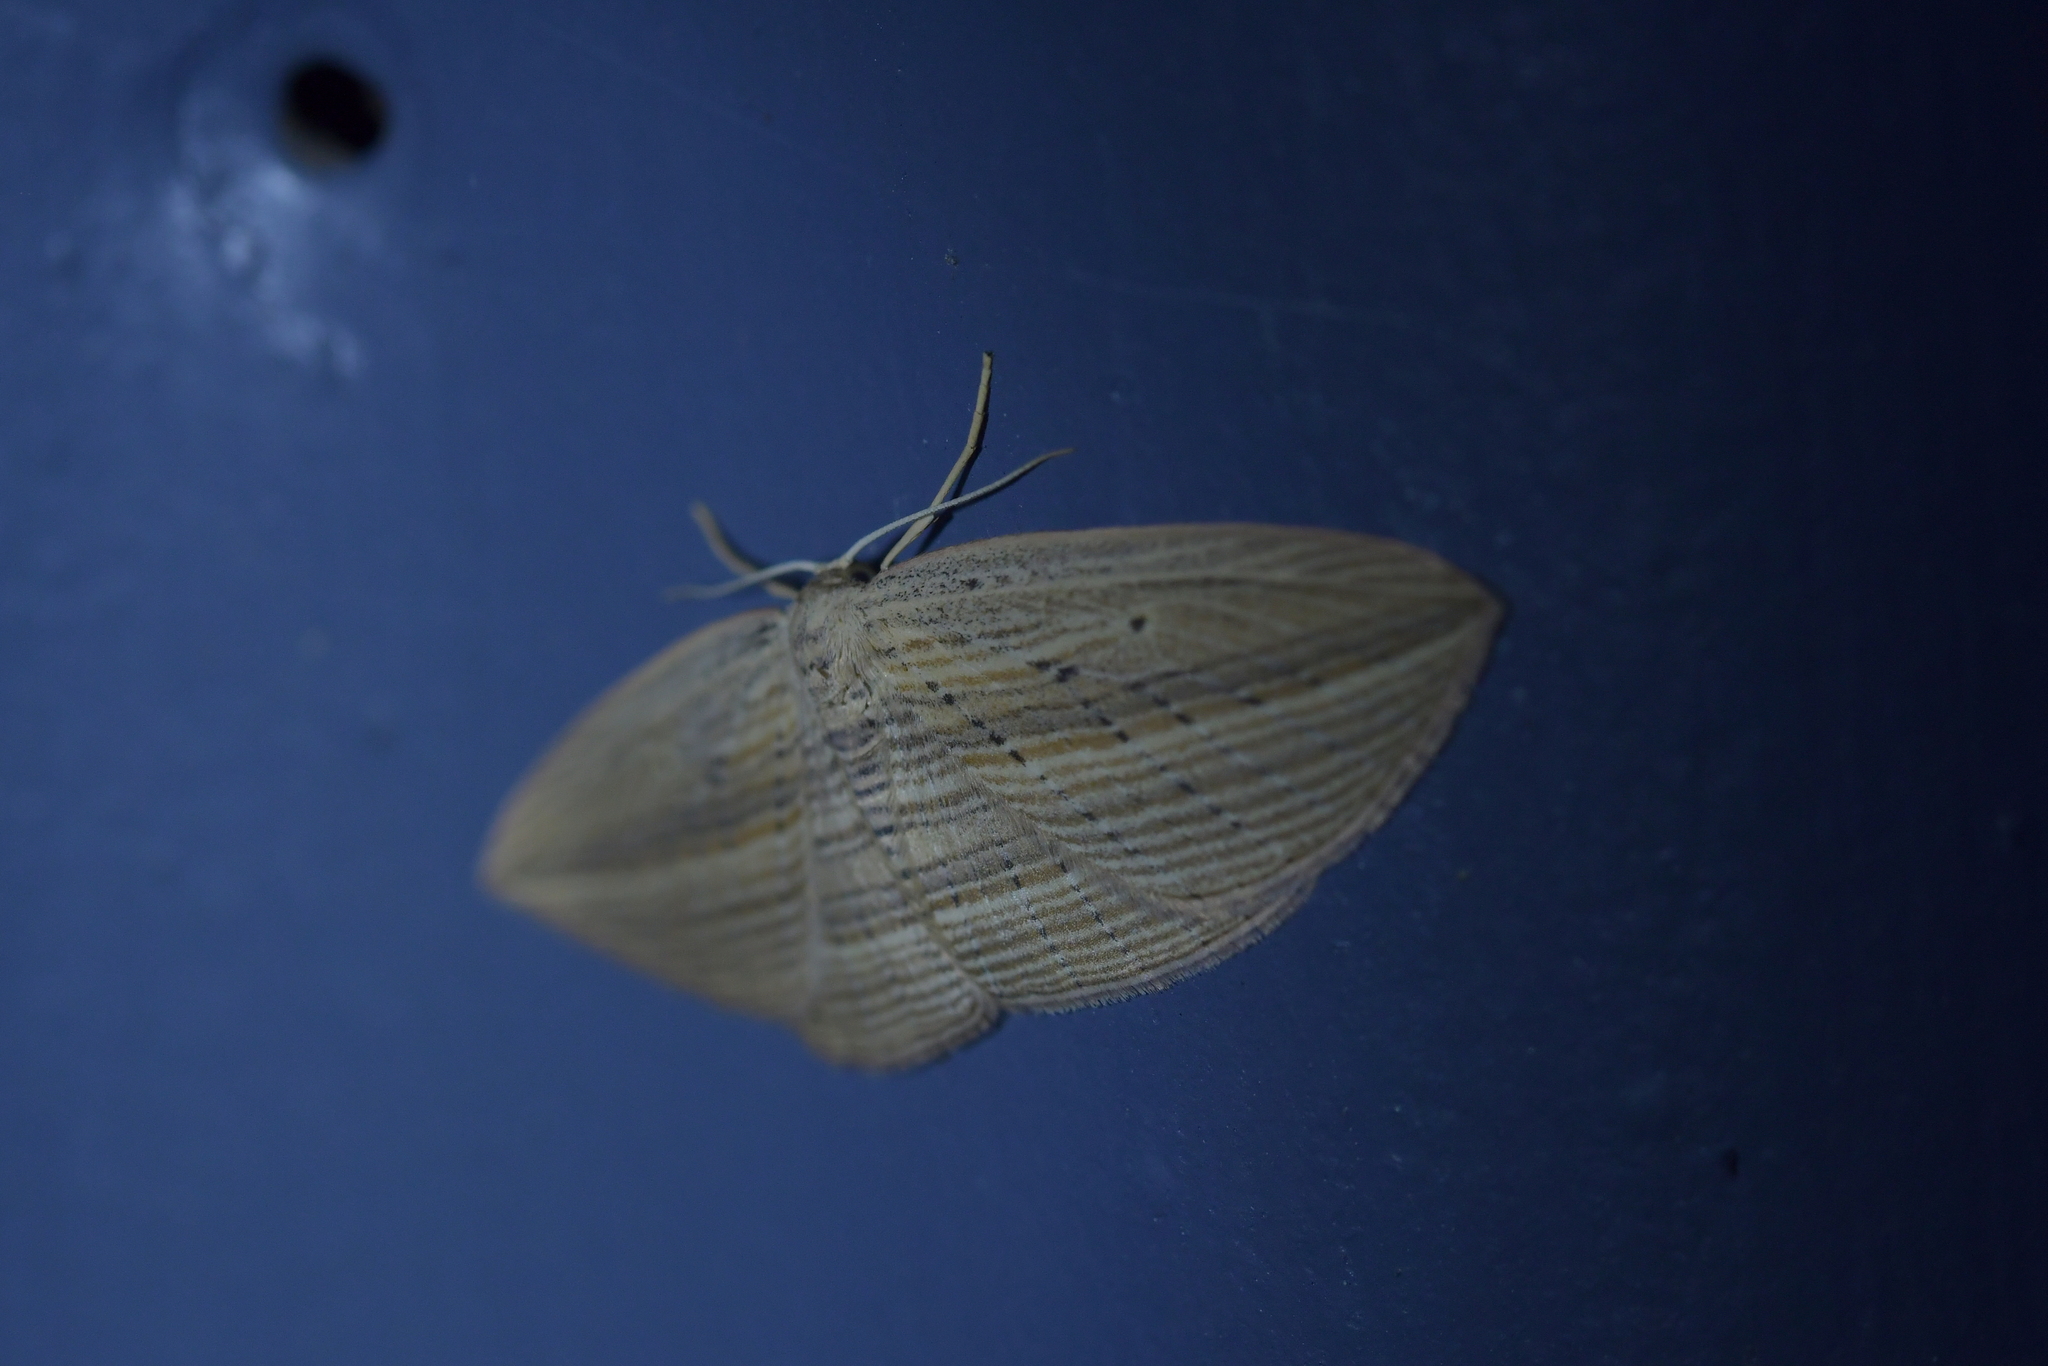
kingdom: Animalia
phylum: Arthropoda
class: Insecta
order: Lepidoptera
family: Geometridae
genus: Epiphryne
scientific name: Epiphryne verriculata
